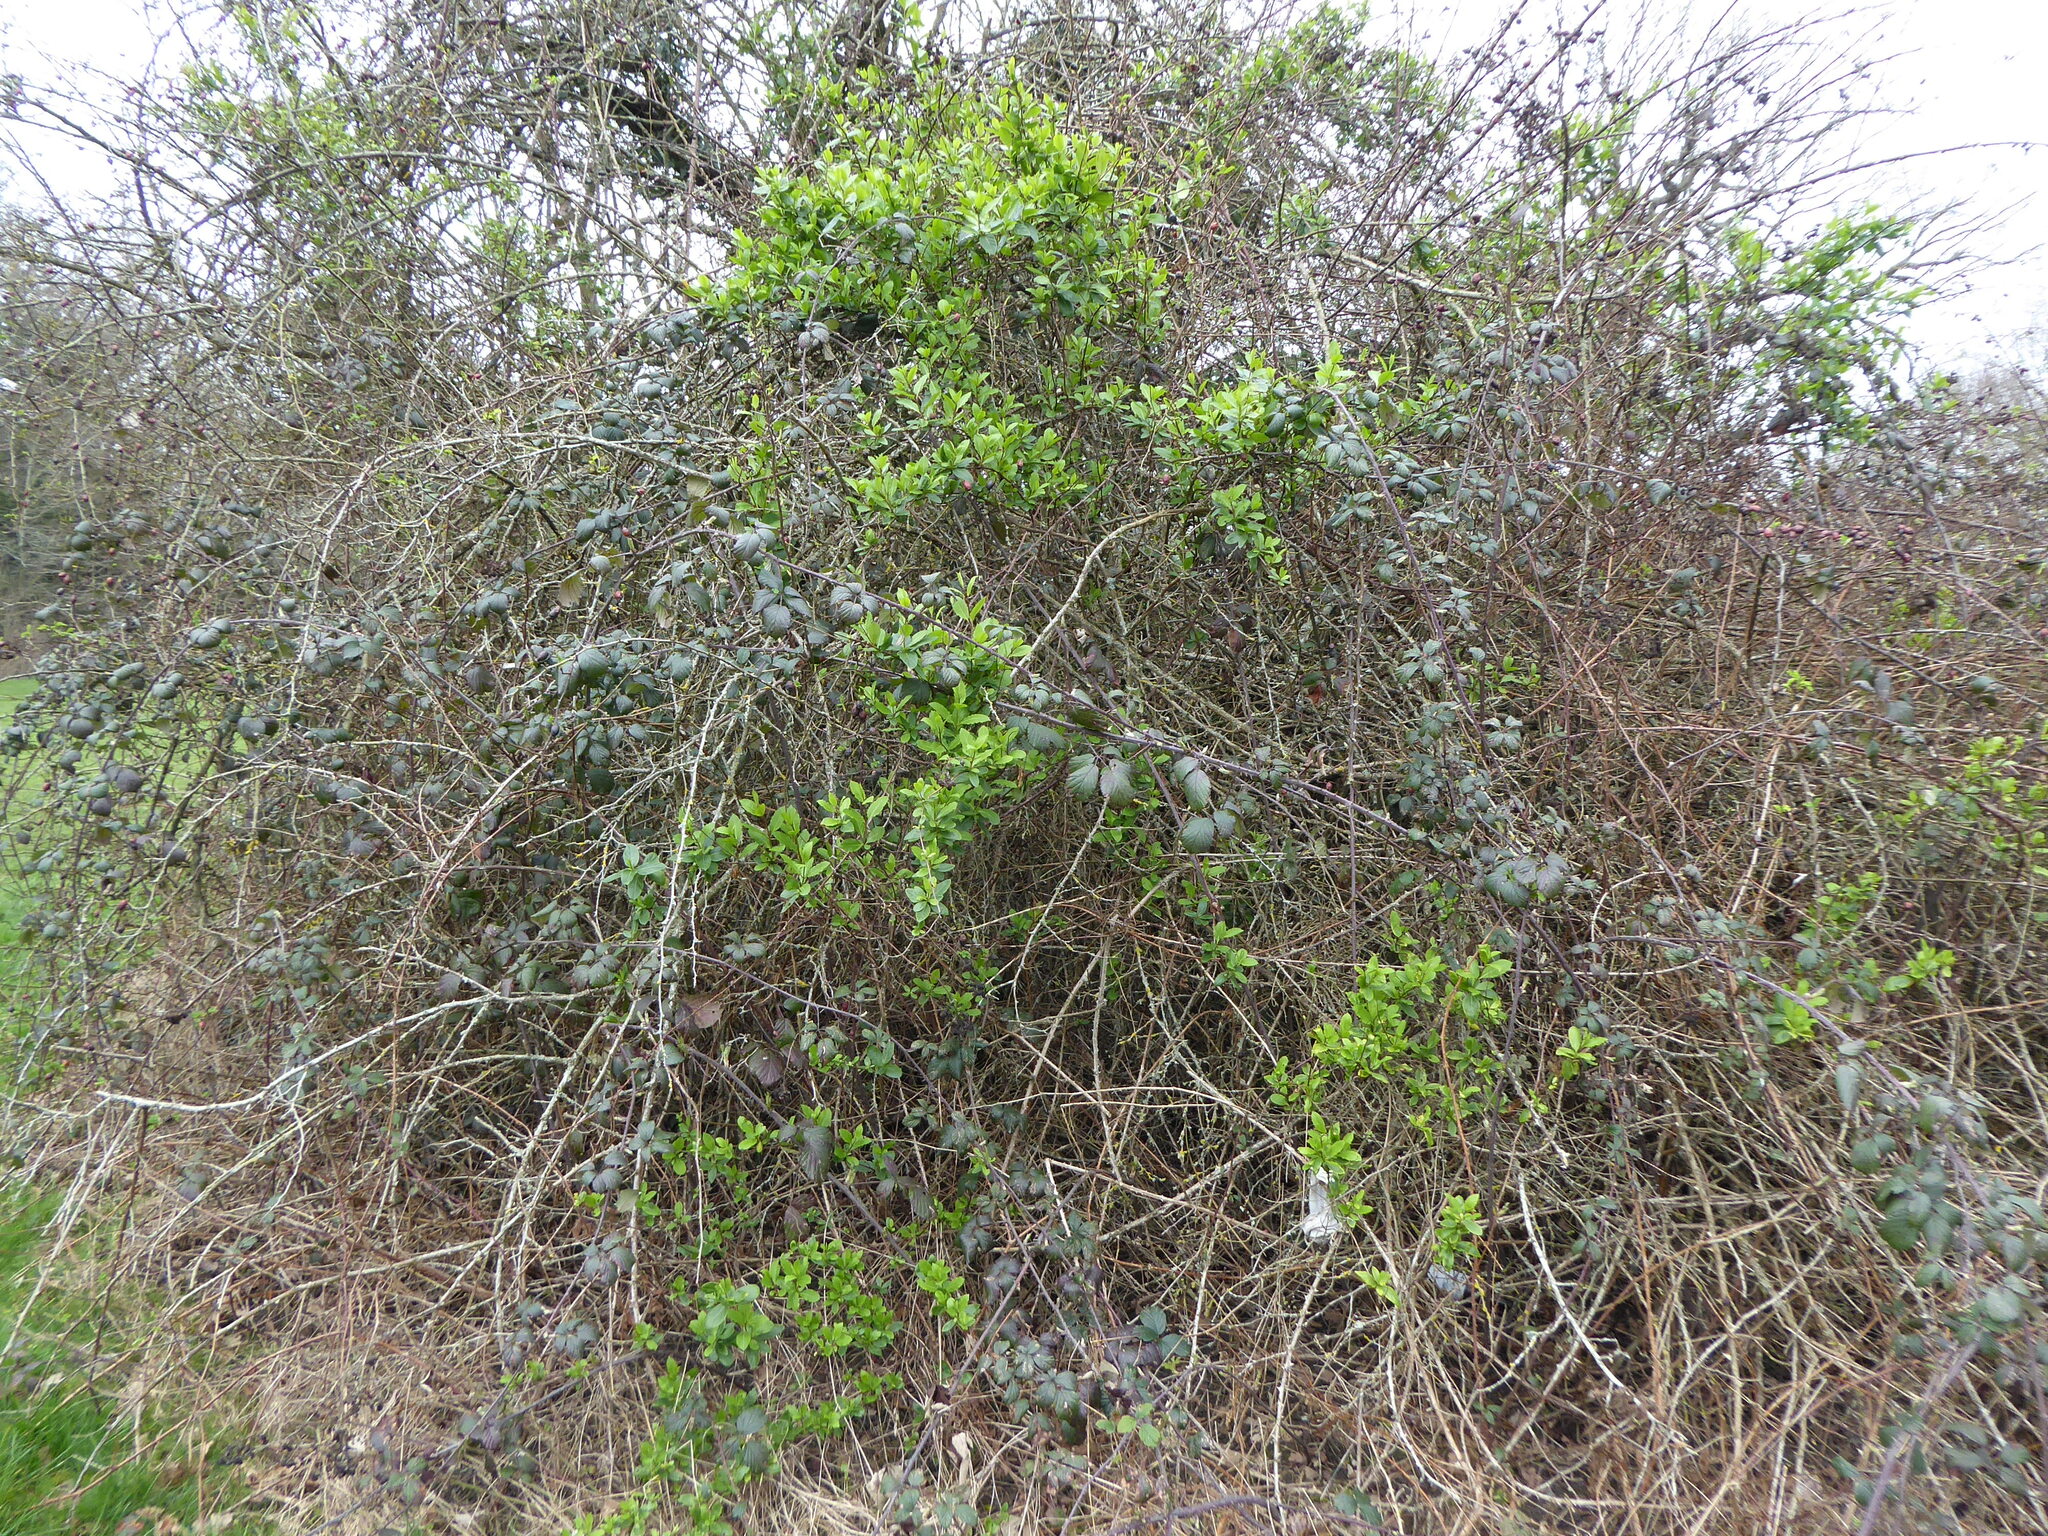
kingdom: Plantae
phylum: Tracheophyta
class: Magnoliopsida
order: Dipsacales
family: Caprifoliaceae
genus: Lonicera
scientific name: Lonicera japonica
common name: Japanese honeysuckle
